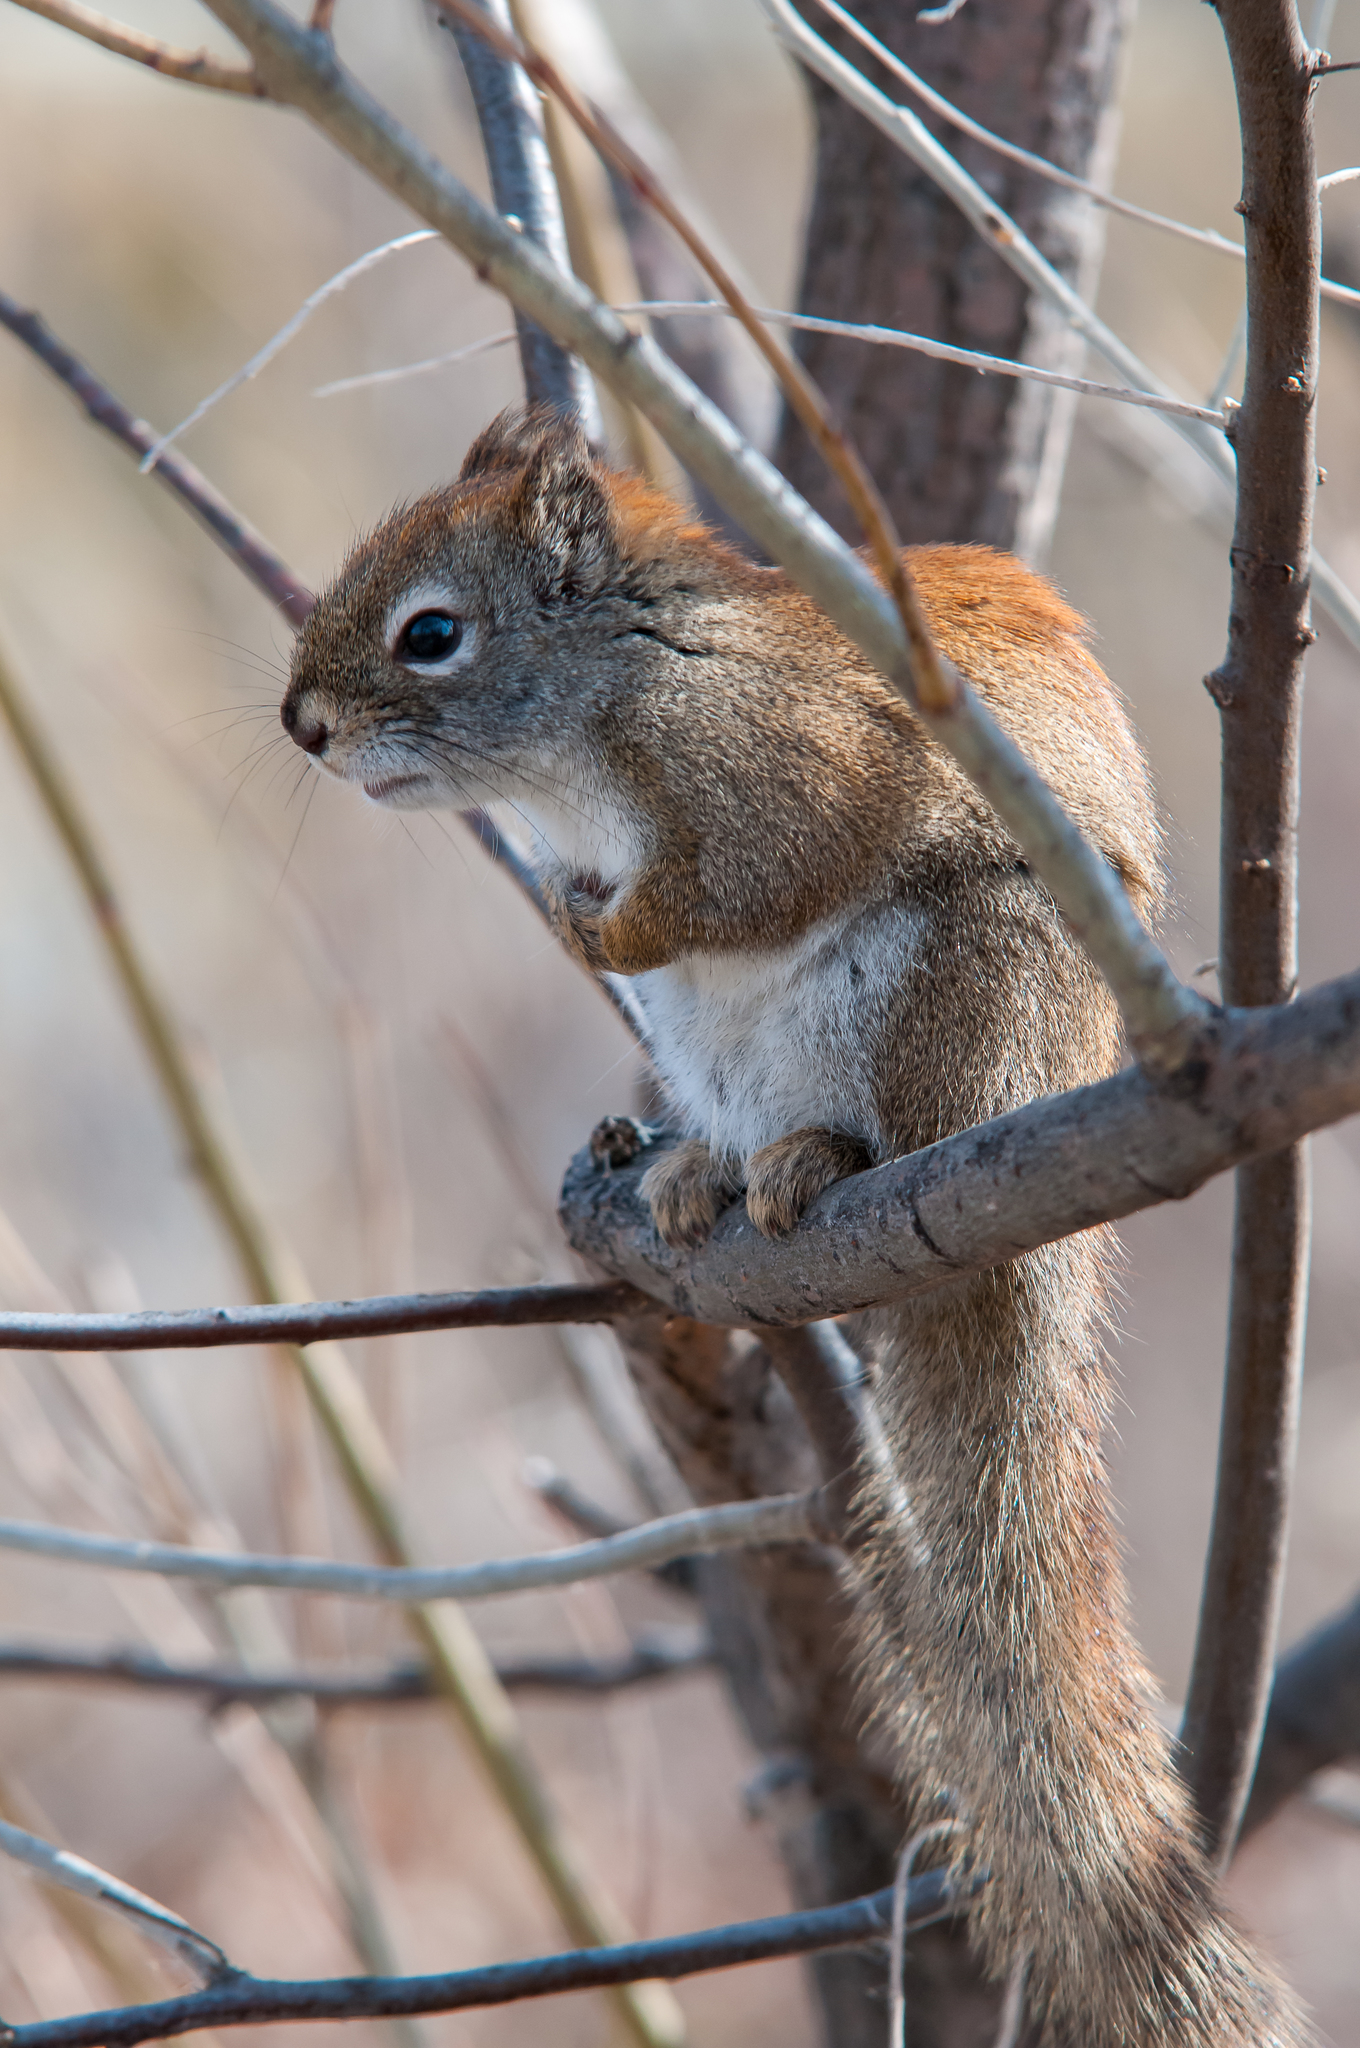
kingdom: Animalia
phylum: Chordata
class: Mammalia
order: Rodentia
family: Sciuridae
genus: Tamiasciurus
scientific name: Tamiasciurus hudsonicus
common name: Red squirrel
